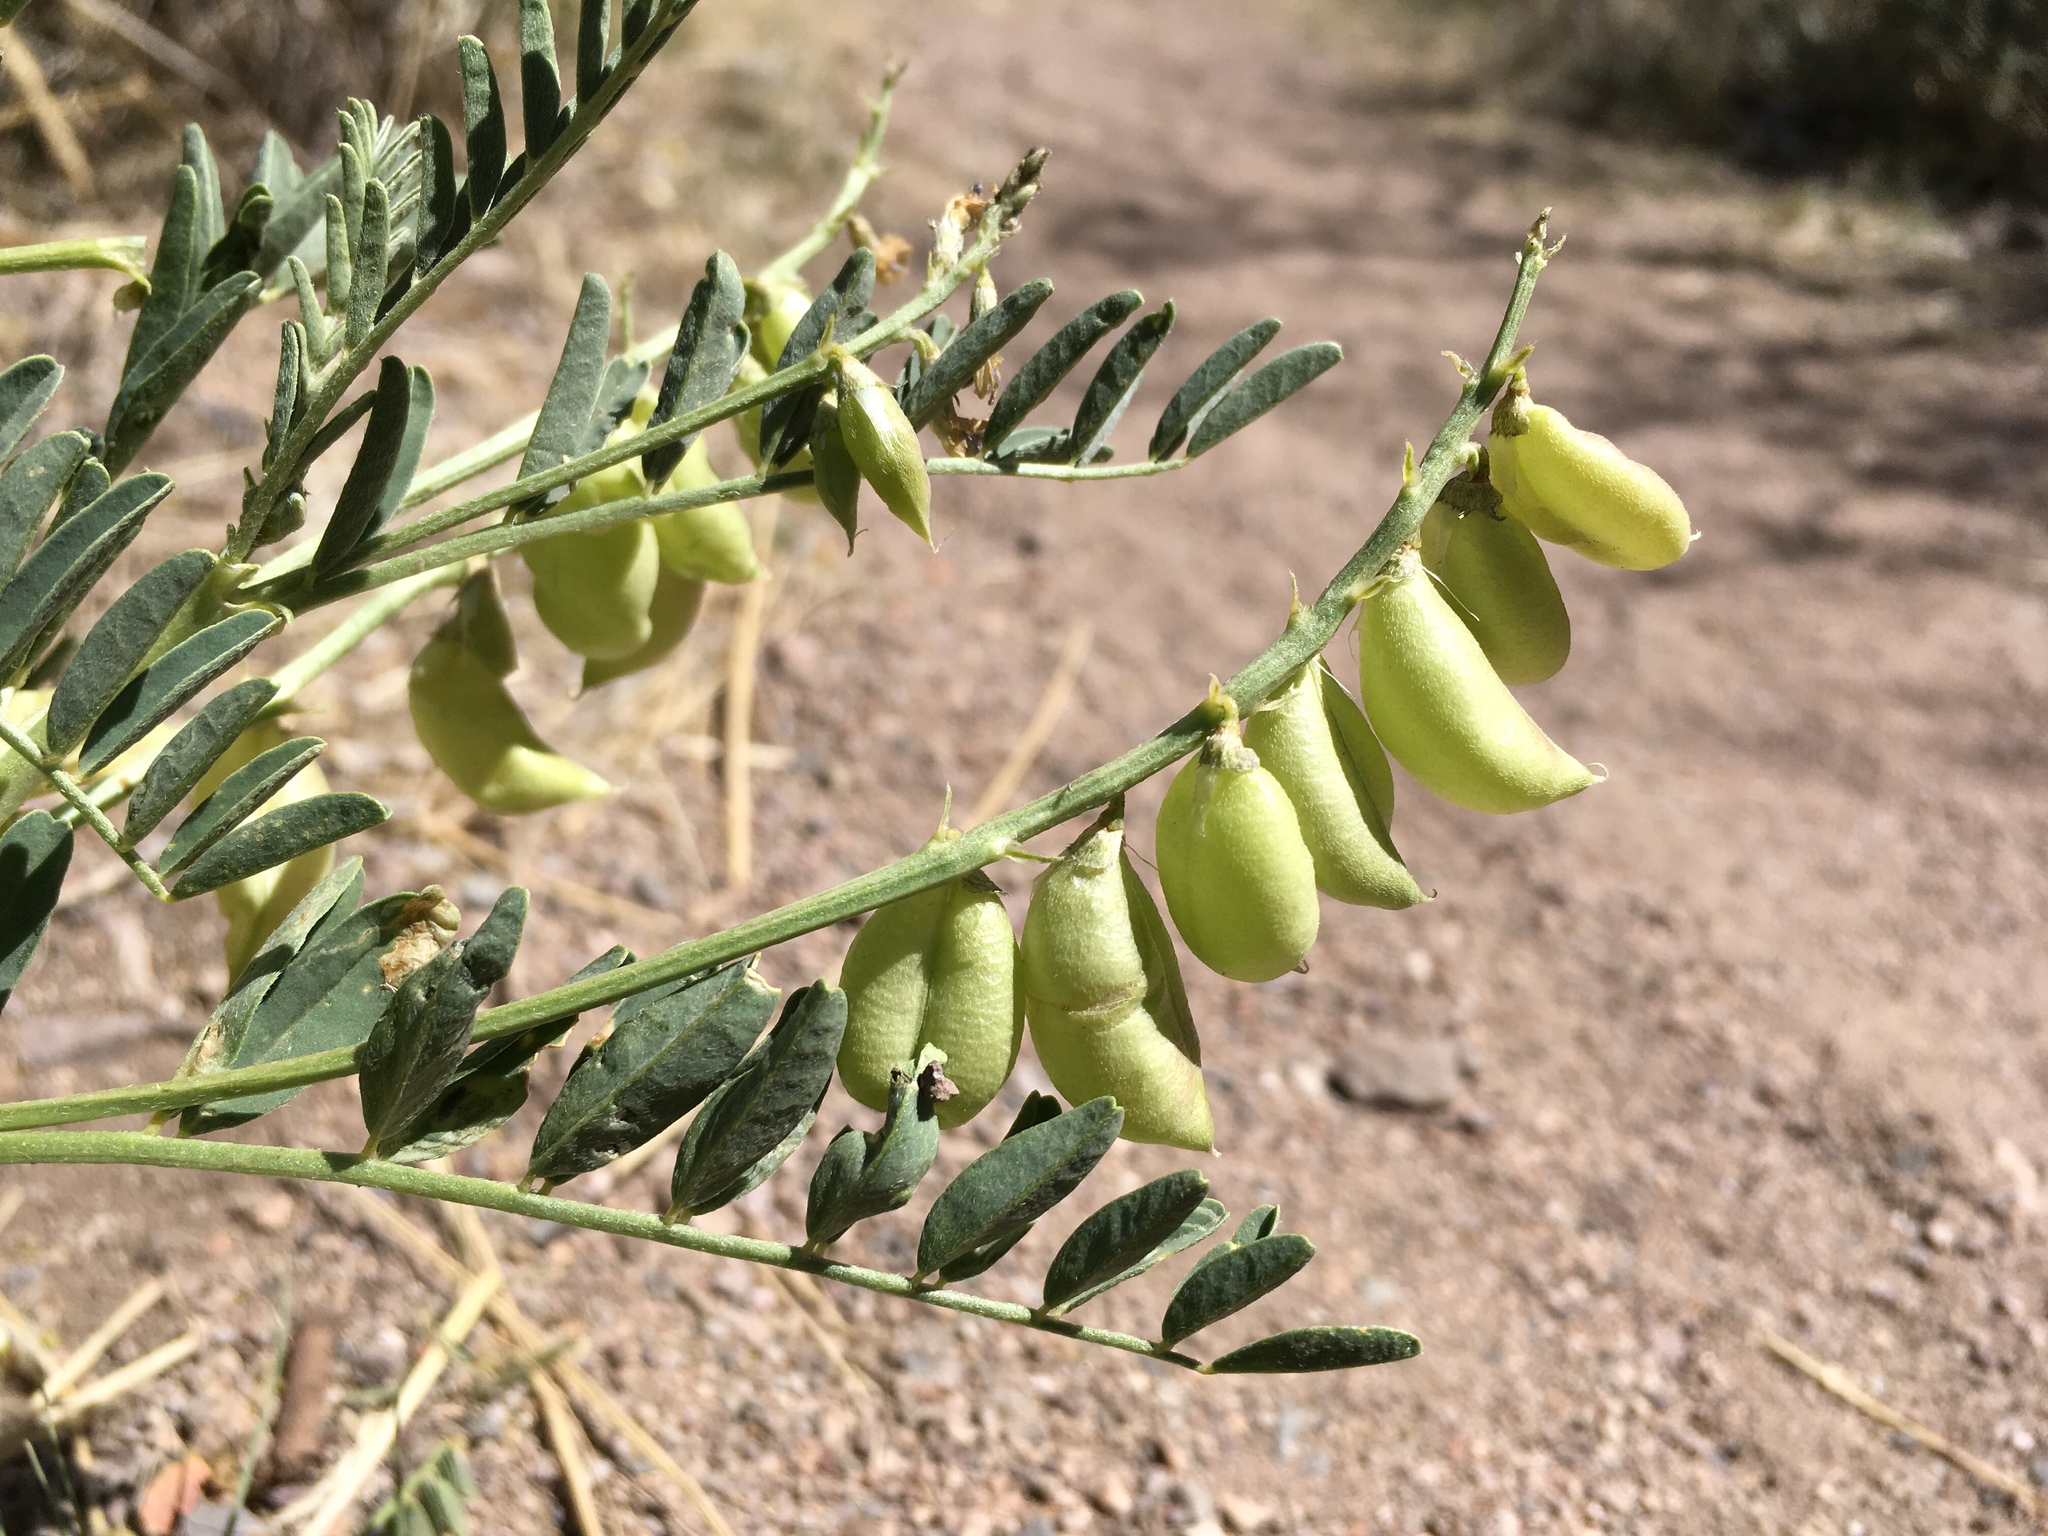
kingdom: Plantae
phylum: Tracheophyta
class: Magnoliopsida
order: Fabales
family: Fabaceae
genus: Astragalus
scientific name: Astragalus allochrous
